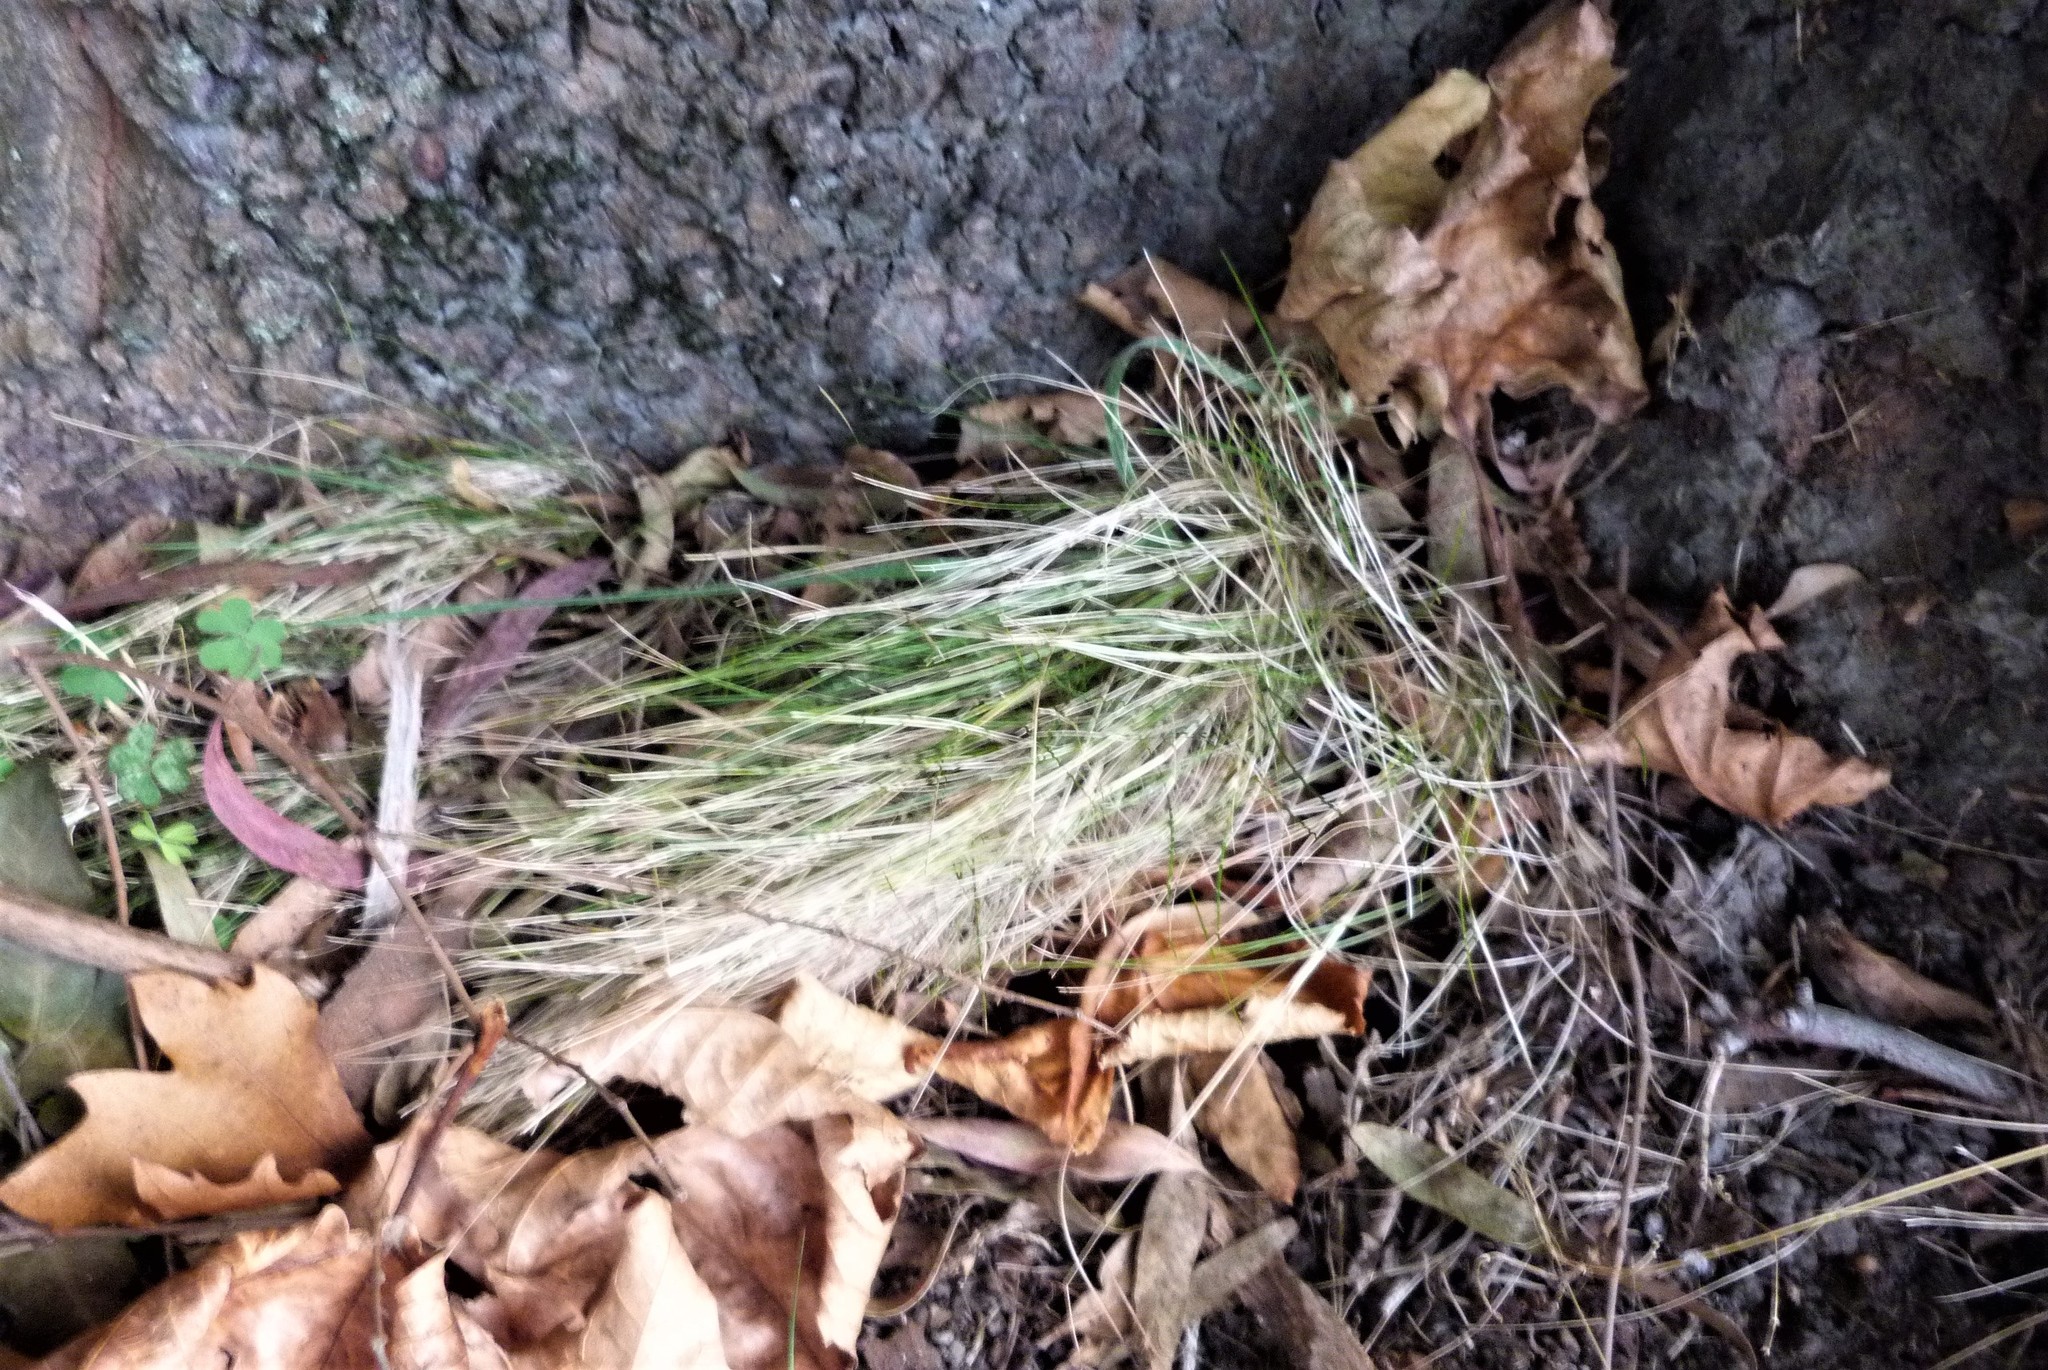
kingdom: Plantae
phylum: Tracheophyta
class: Liliopsida
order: Poales
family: Poaceae
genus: Poa
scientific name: Poa imbecilla
